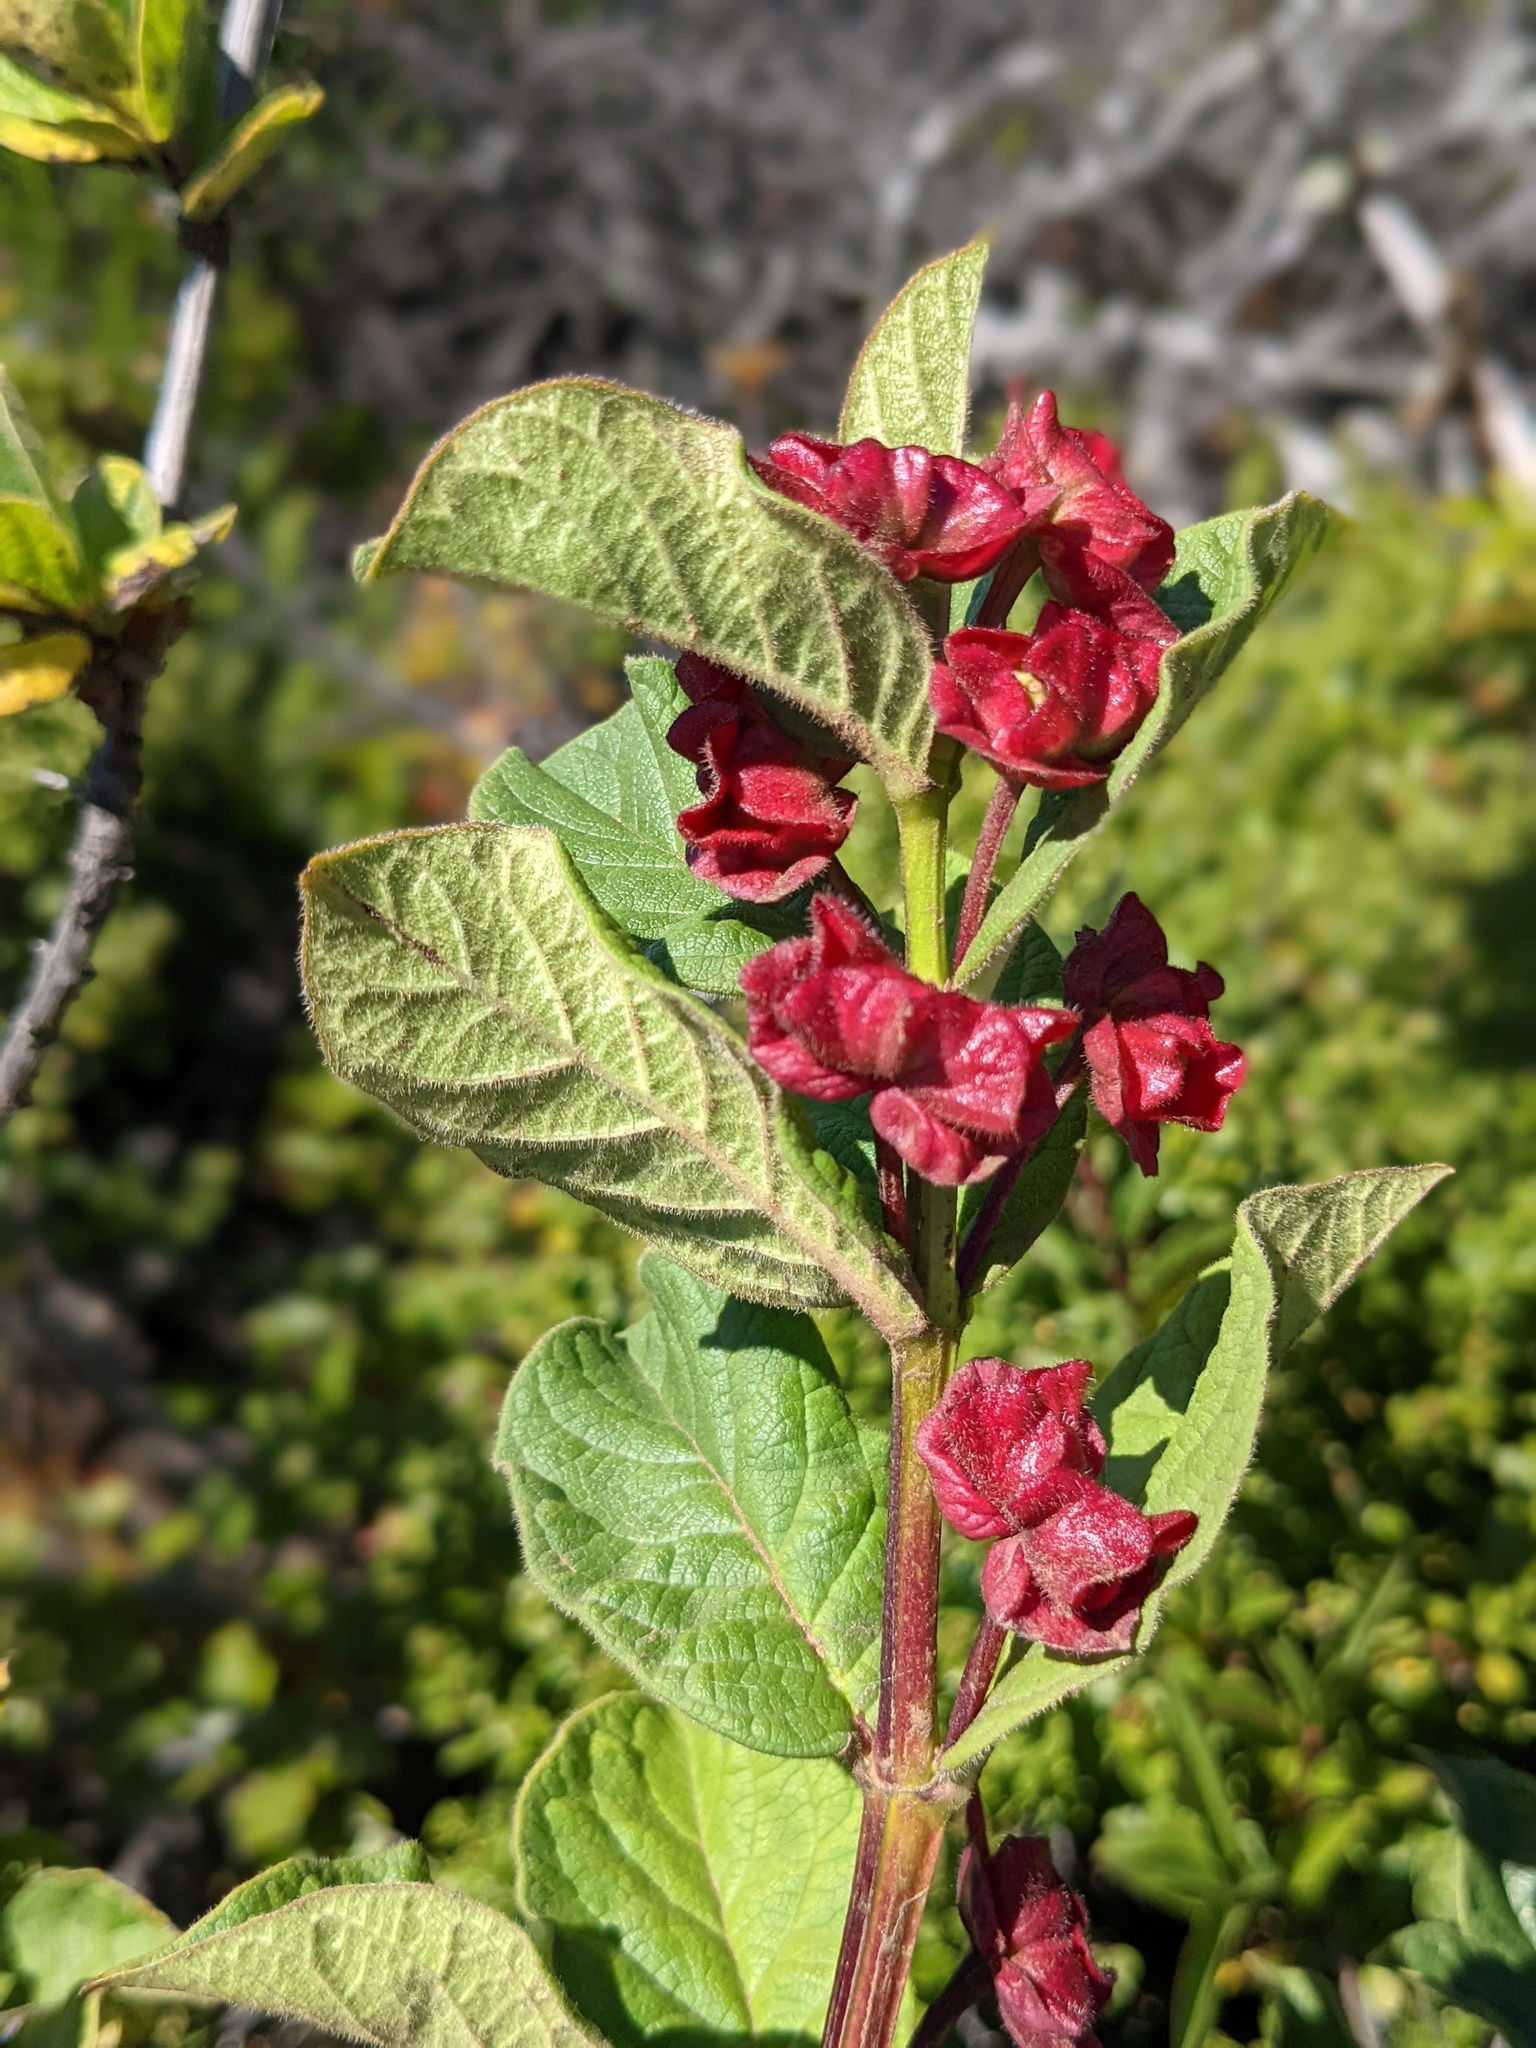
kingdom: Plantae
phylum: Tracheophyta
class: Magnoliopsida
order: Dipsacales
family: Caprifoliaceae
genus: Lonicera
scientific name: Lonicera involucrata
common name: Californian honeysuckle
